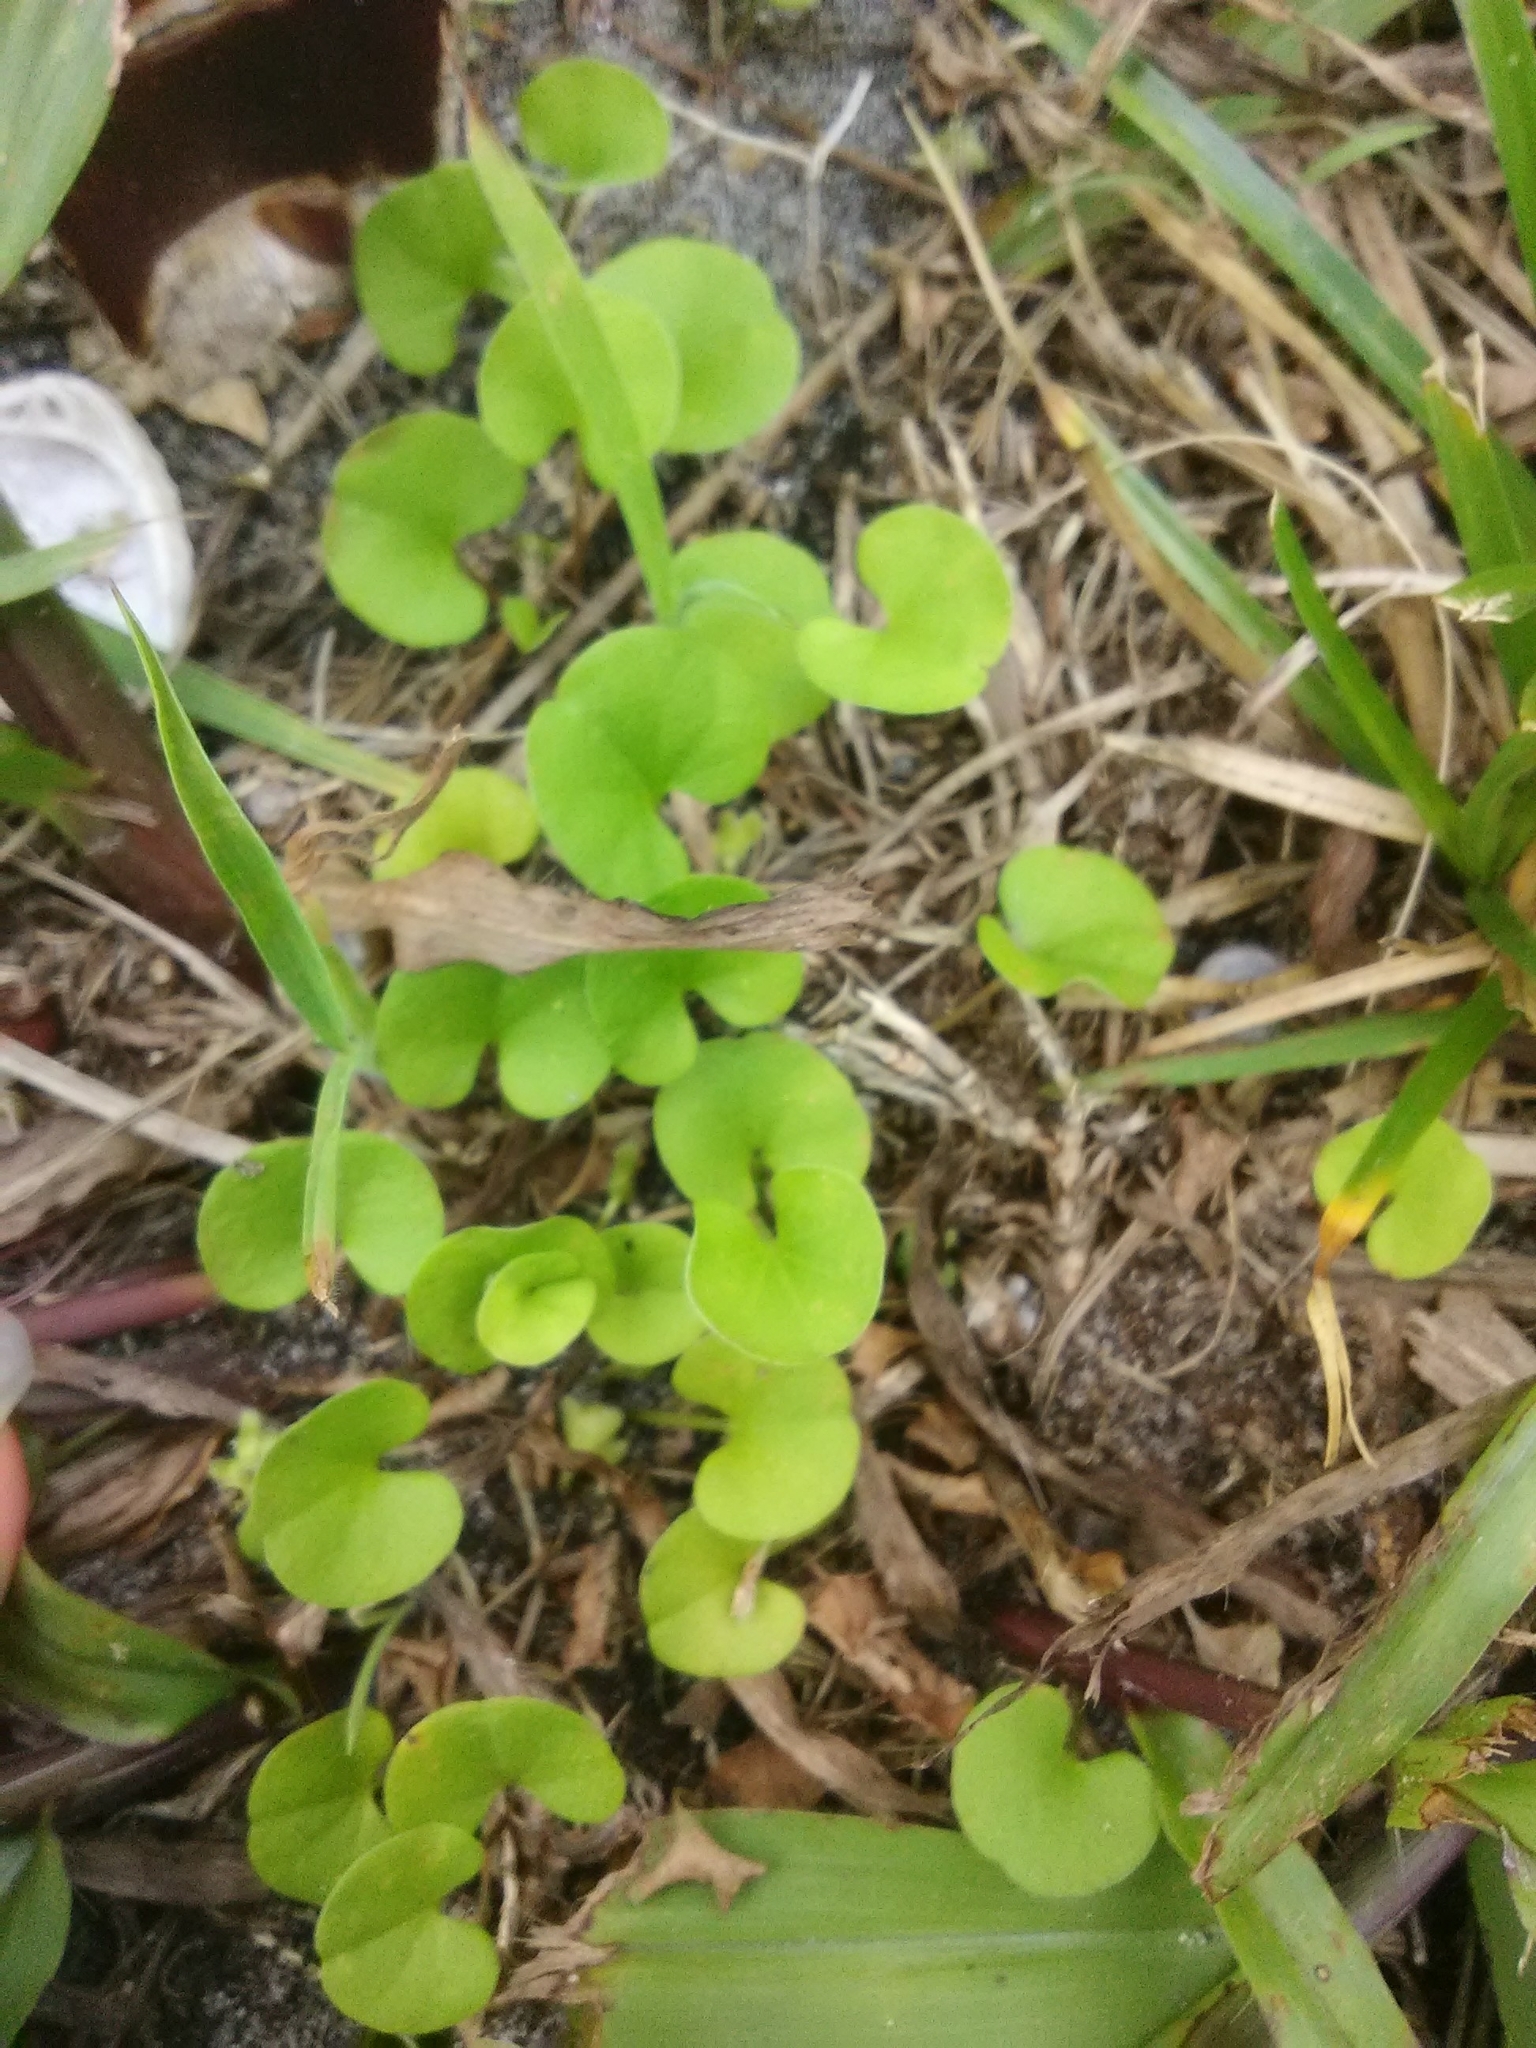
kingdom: Plantae
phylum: Tracheophyta
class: Magnoliopsida
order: Solanales
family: Convolvulaceae
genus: Dichondra
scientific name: Dichondra carolinensis
